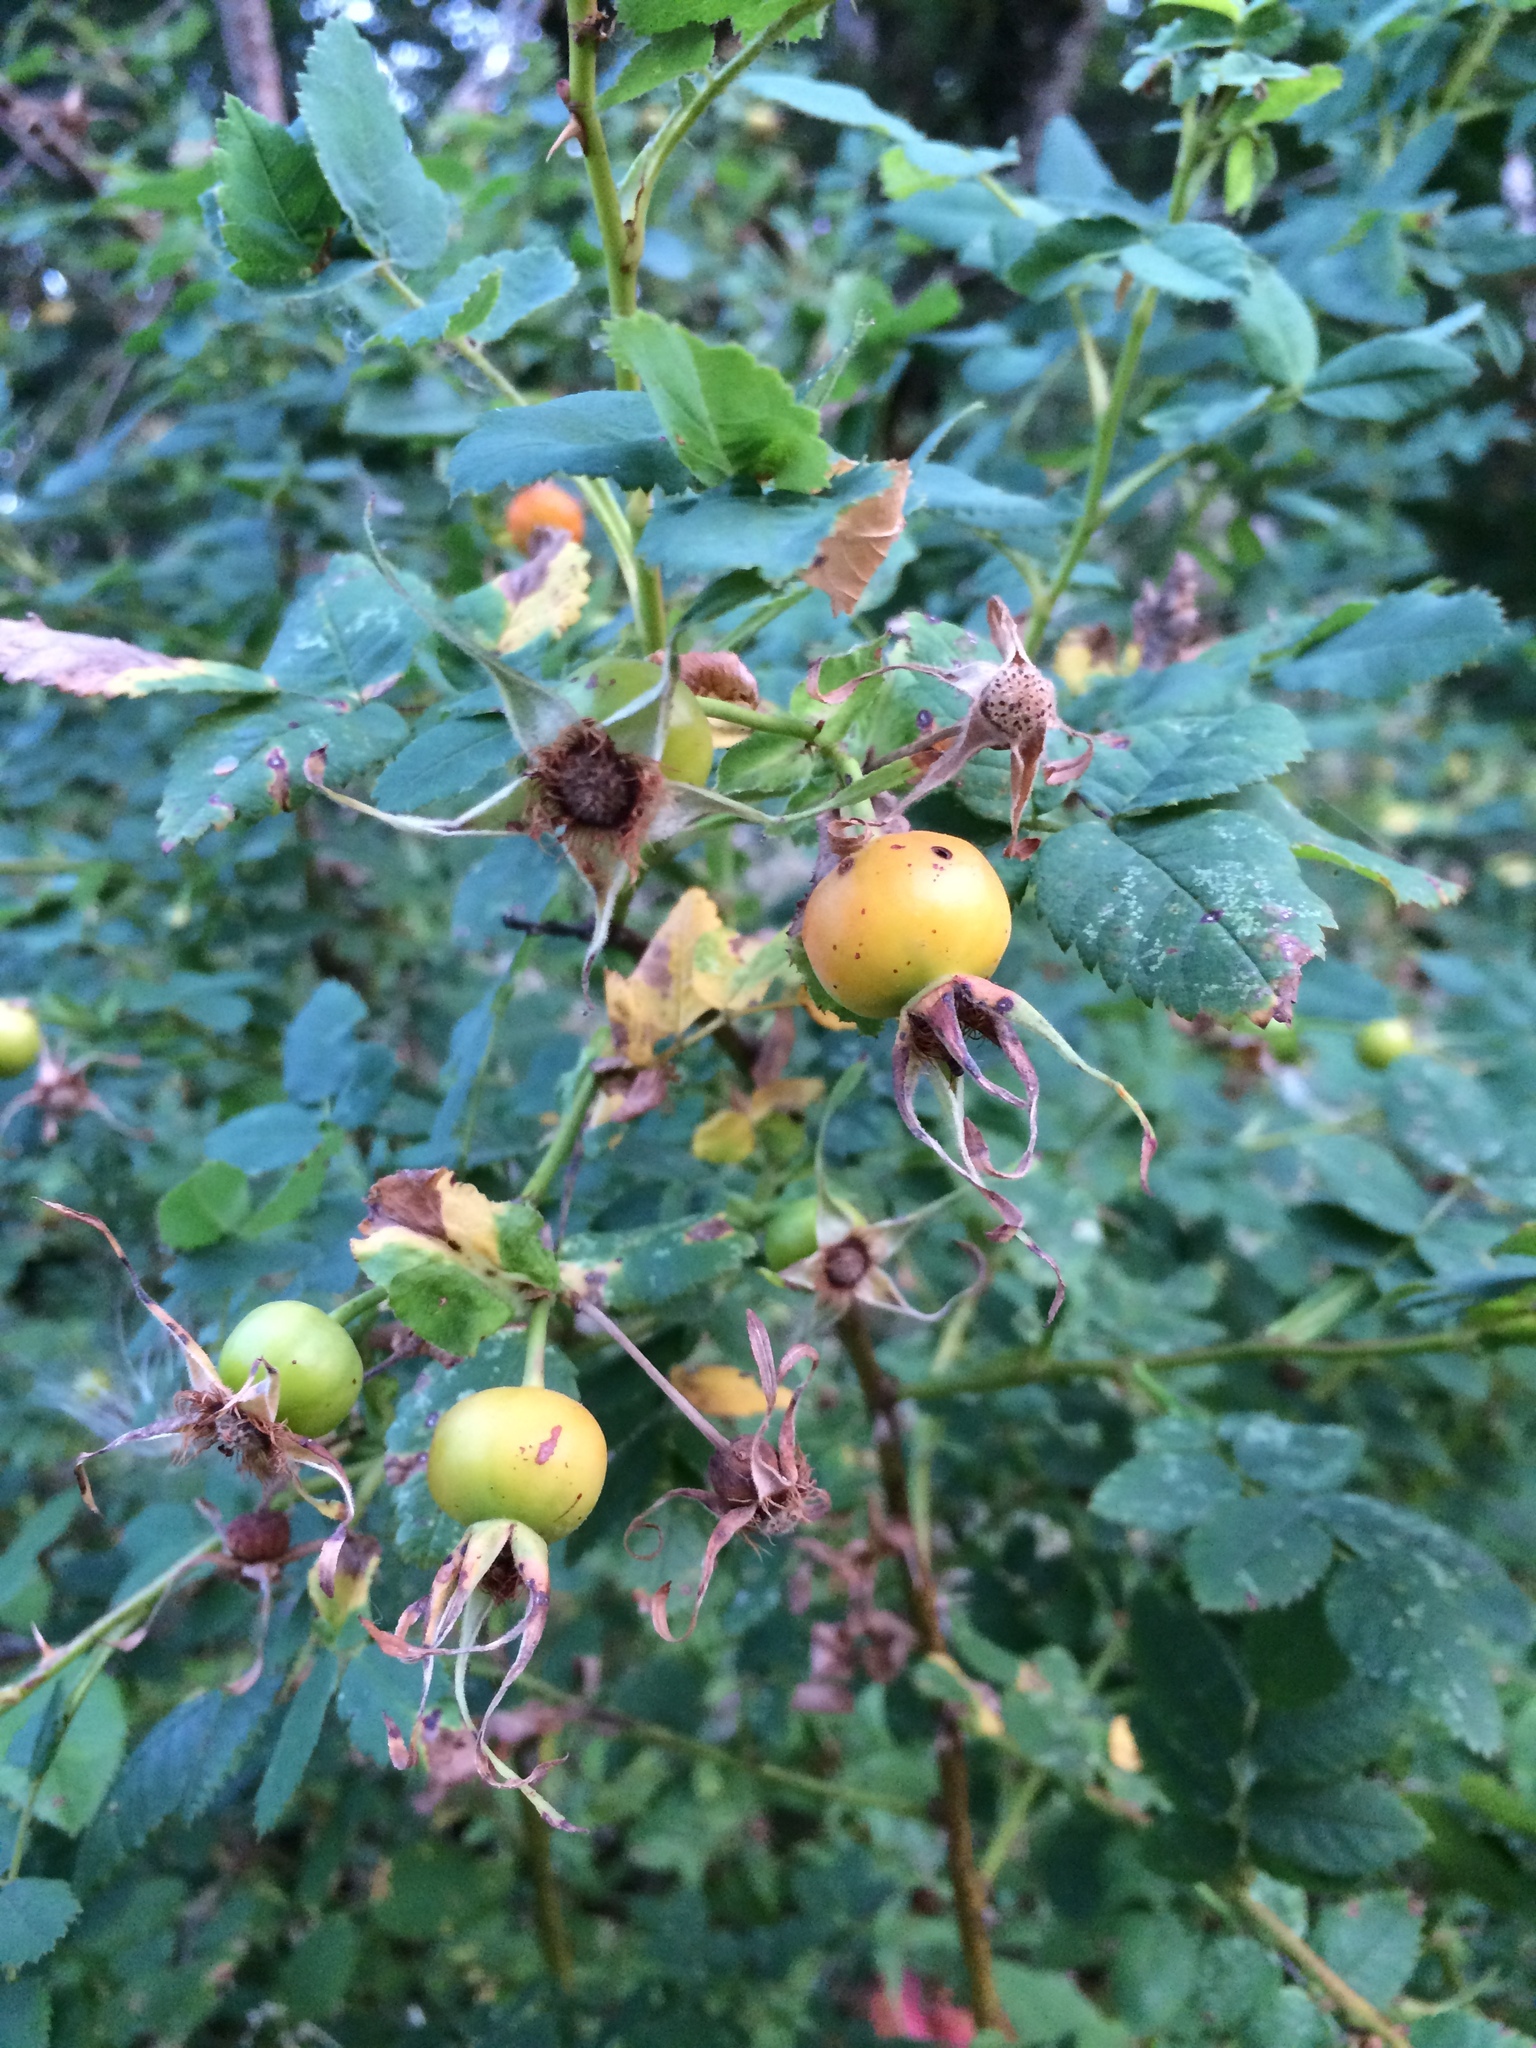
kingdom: Plantae
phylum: Tracheophyta
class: Magnoliopsida
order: Rosales
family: Rosaceae
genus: Rosa
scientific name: Rosa nutkana
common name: Nootka rose
